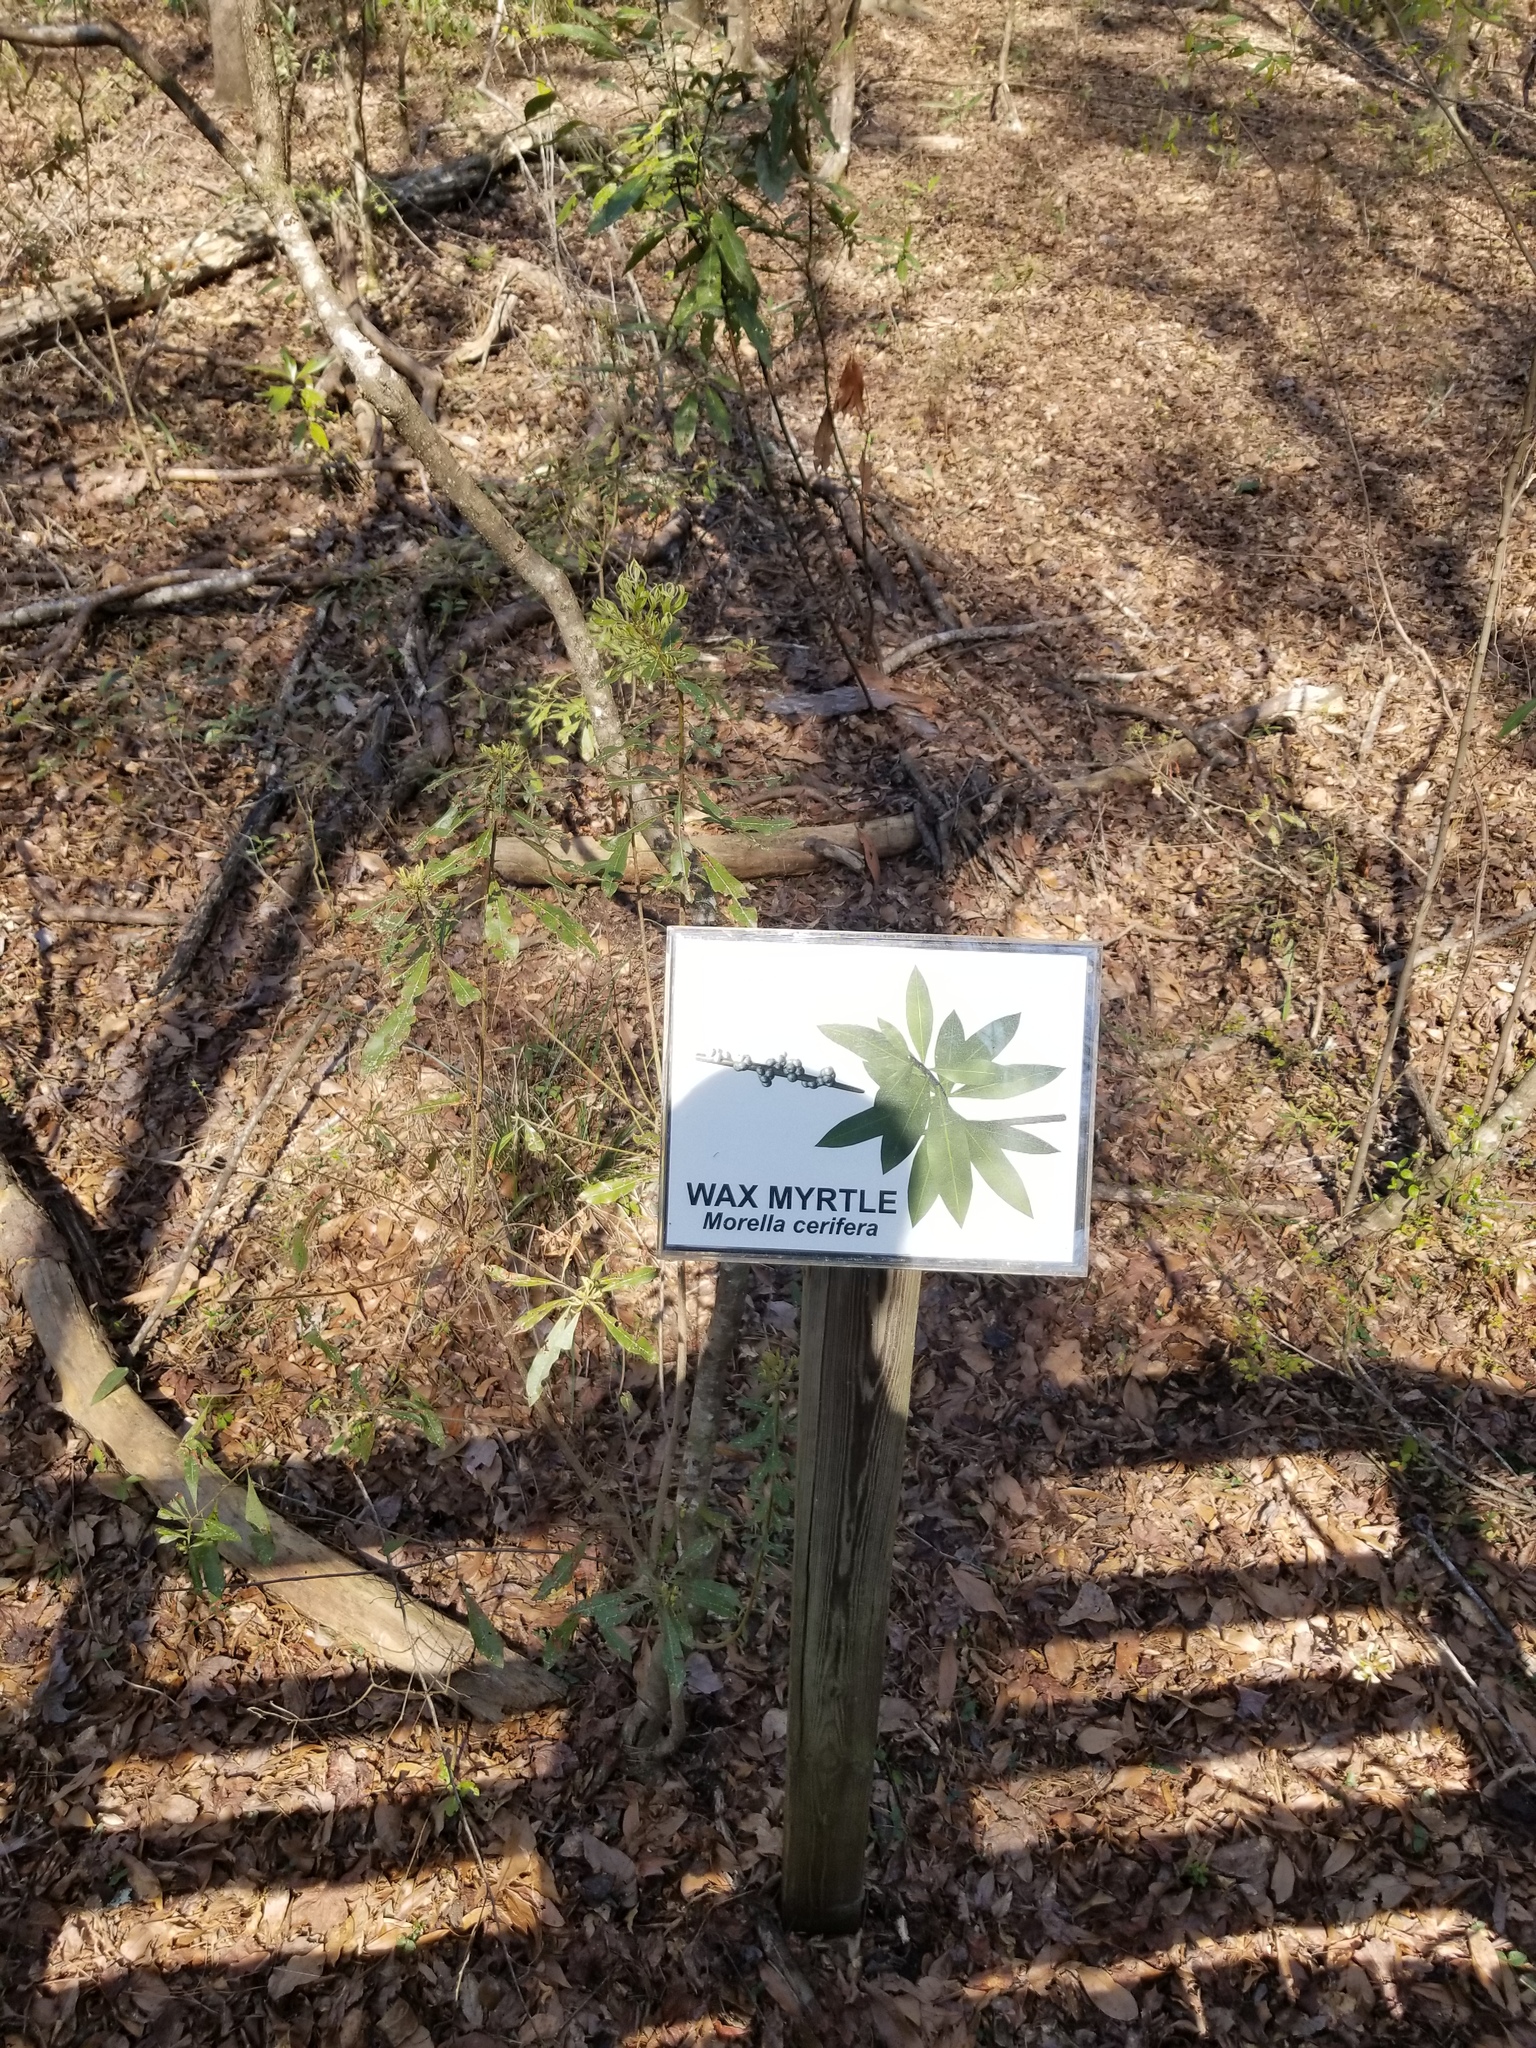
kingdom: Plantae
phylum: Tracheophyta
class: Magnoliopsida
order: Fagales
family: Myricaceae
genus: Morella
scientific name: Morella cerifera
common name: Wax myrtle
